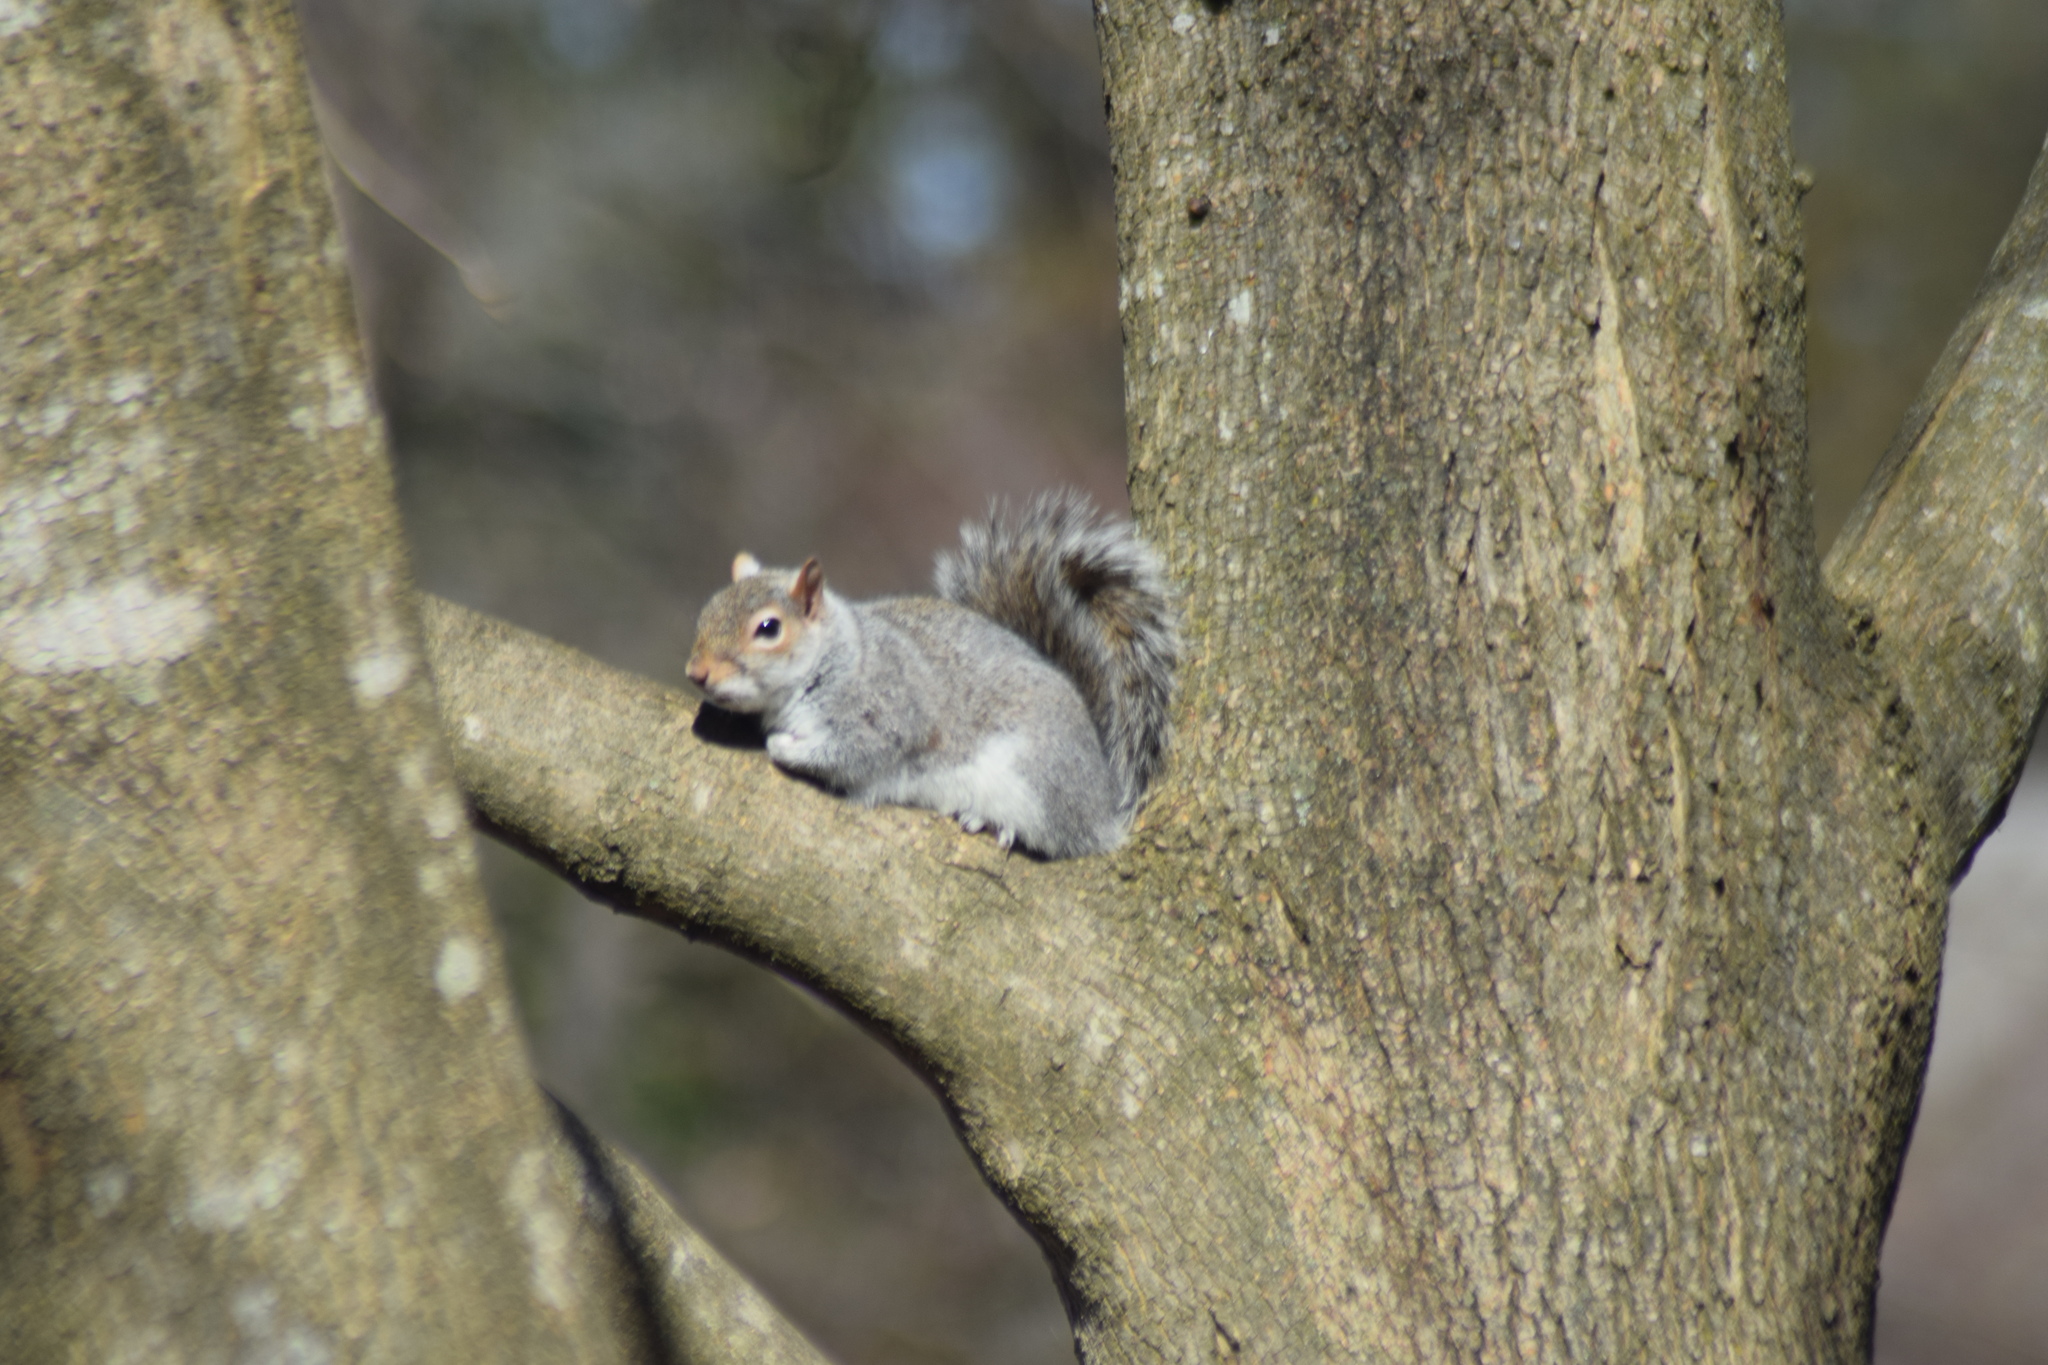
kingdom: Animalia
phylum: Chordata
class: Mammalia
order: Rodentia
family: Sciuridae
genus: Sciurus
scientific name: Sciurus carolinensis
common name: Eastern gray squirrel
